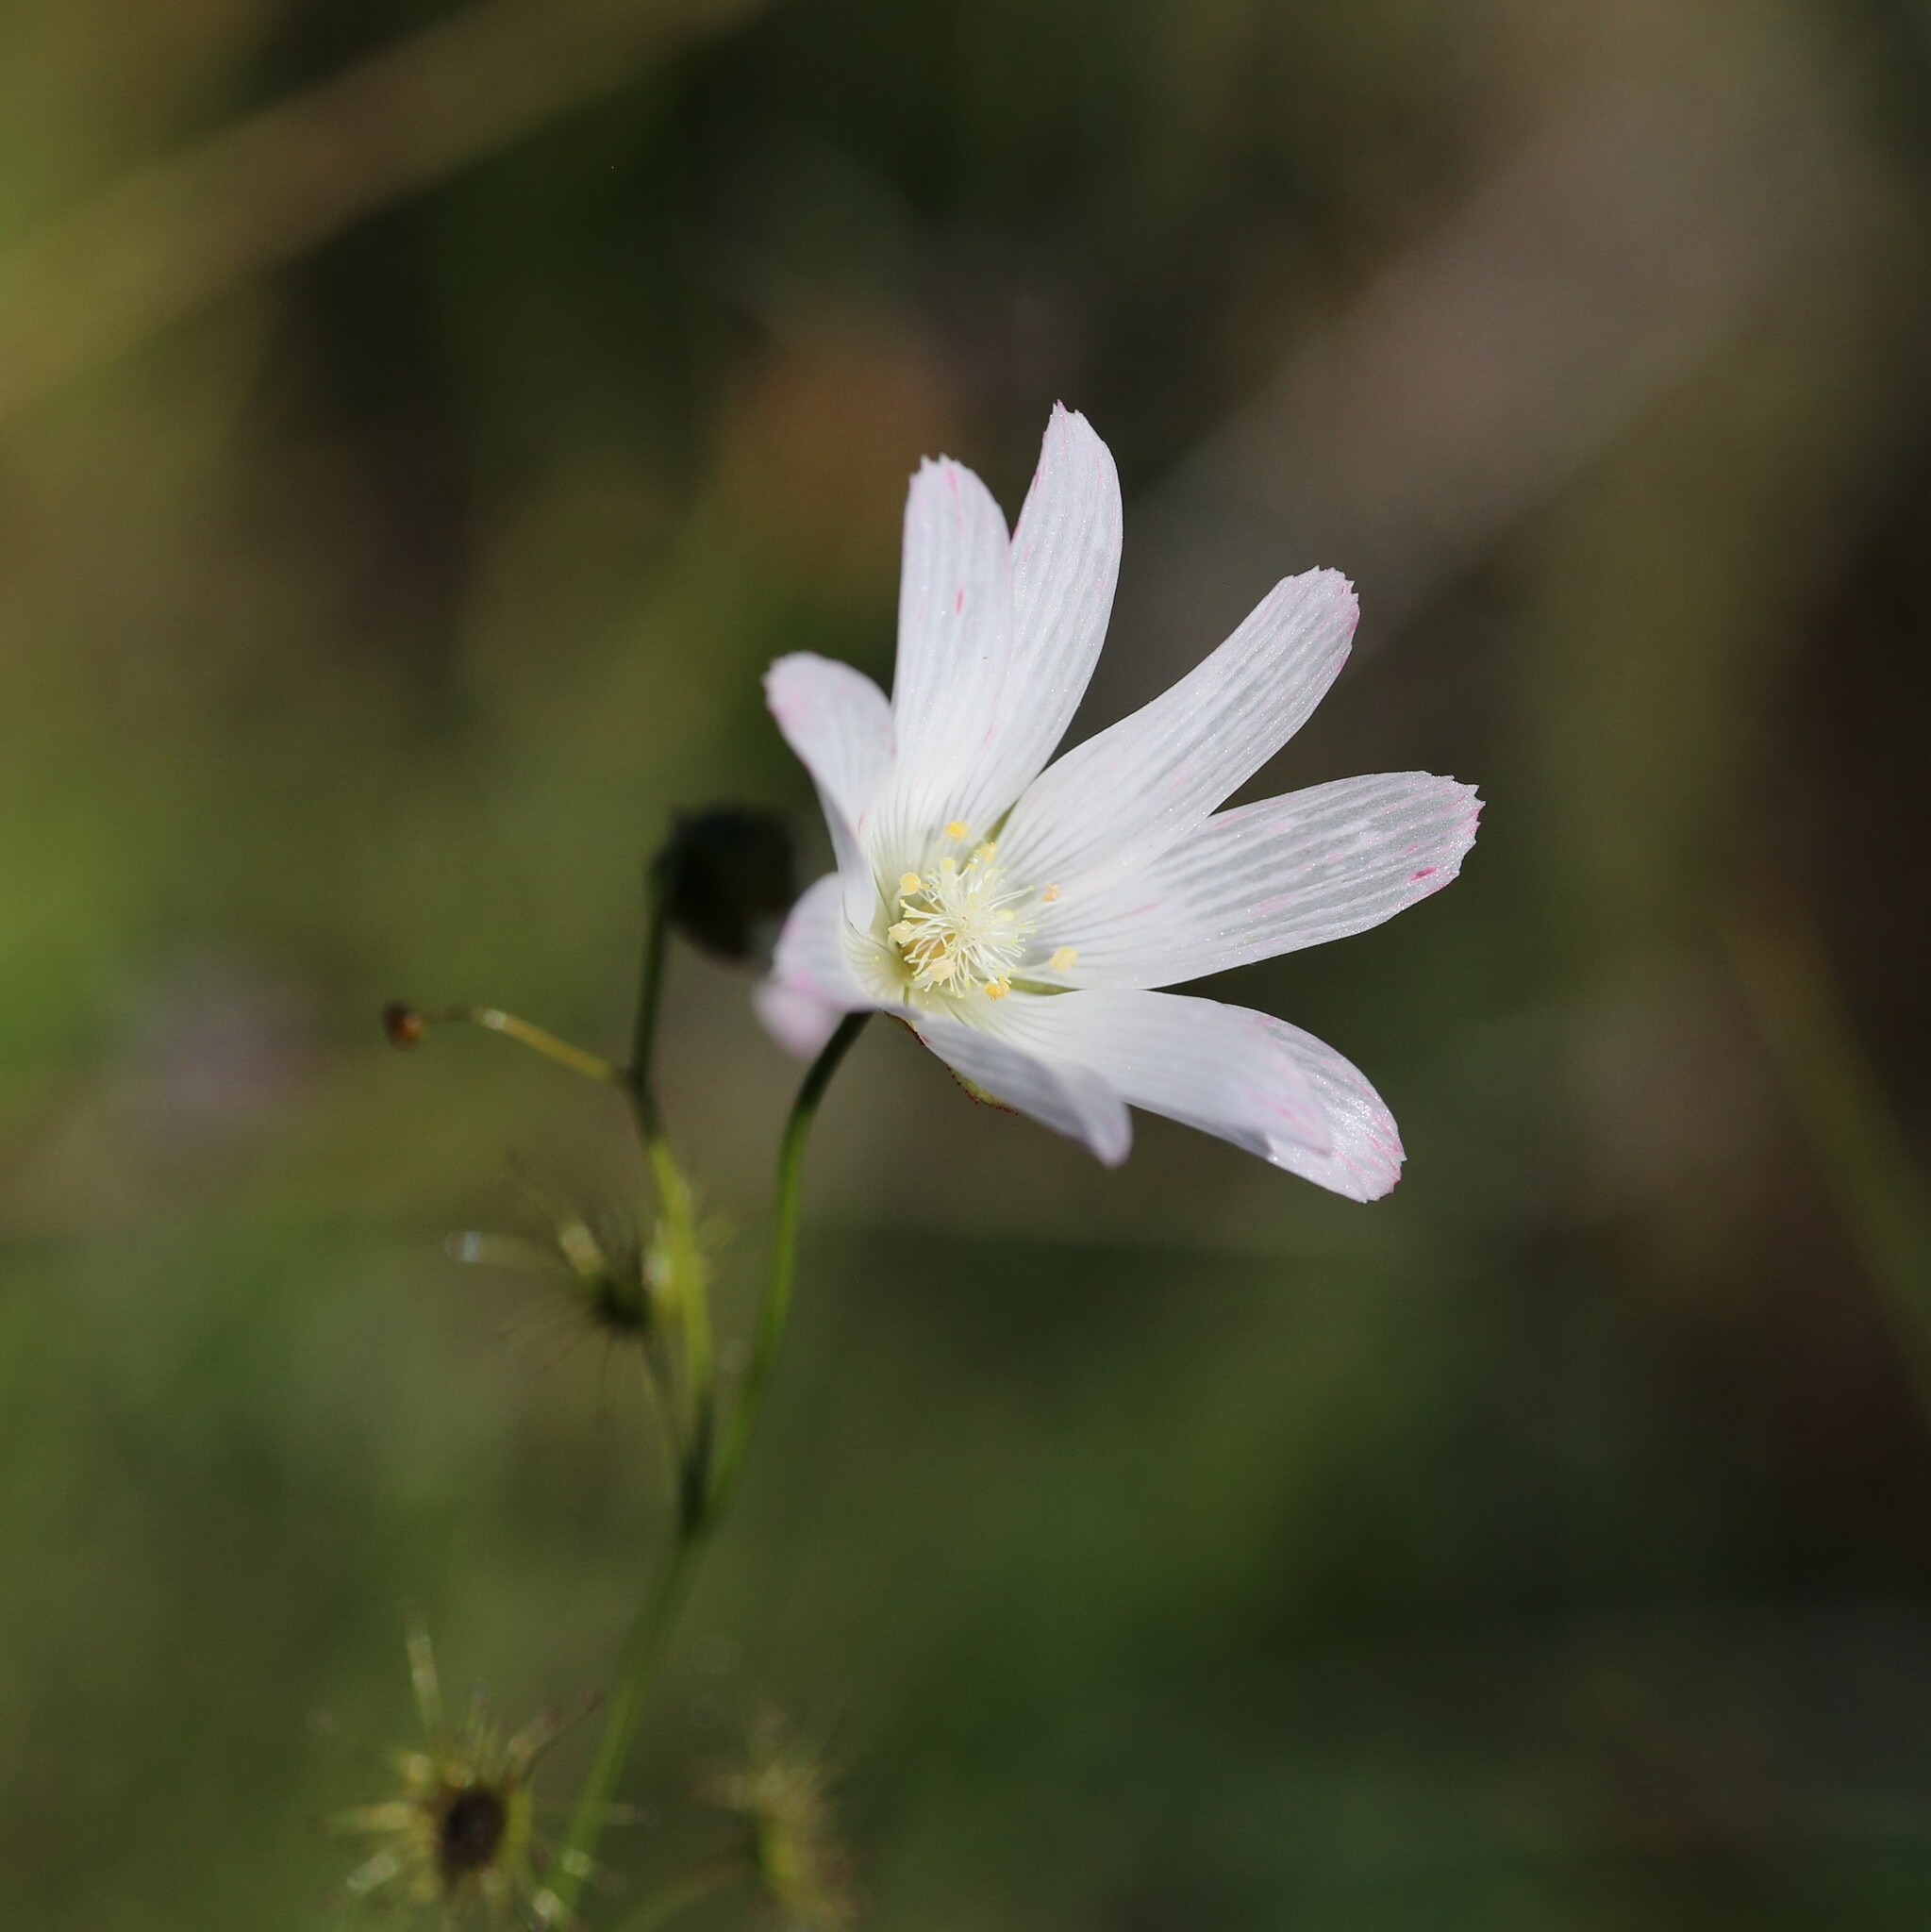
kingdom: Plantae
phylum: Tracheophyta
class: Magnoliopsida
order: Caryophyllales
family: Droseraceae
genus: Drosera
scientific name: Drosera heterophylla
